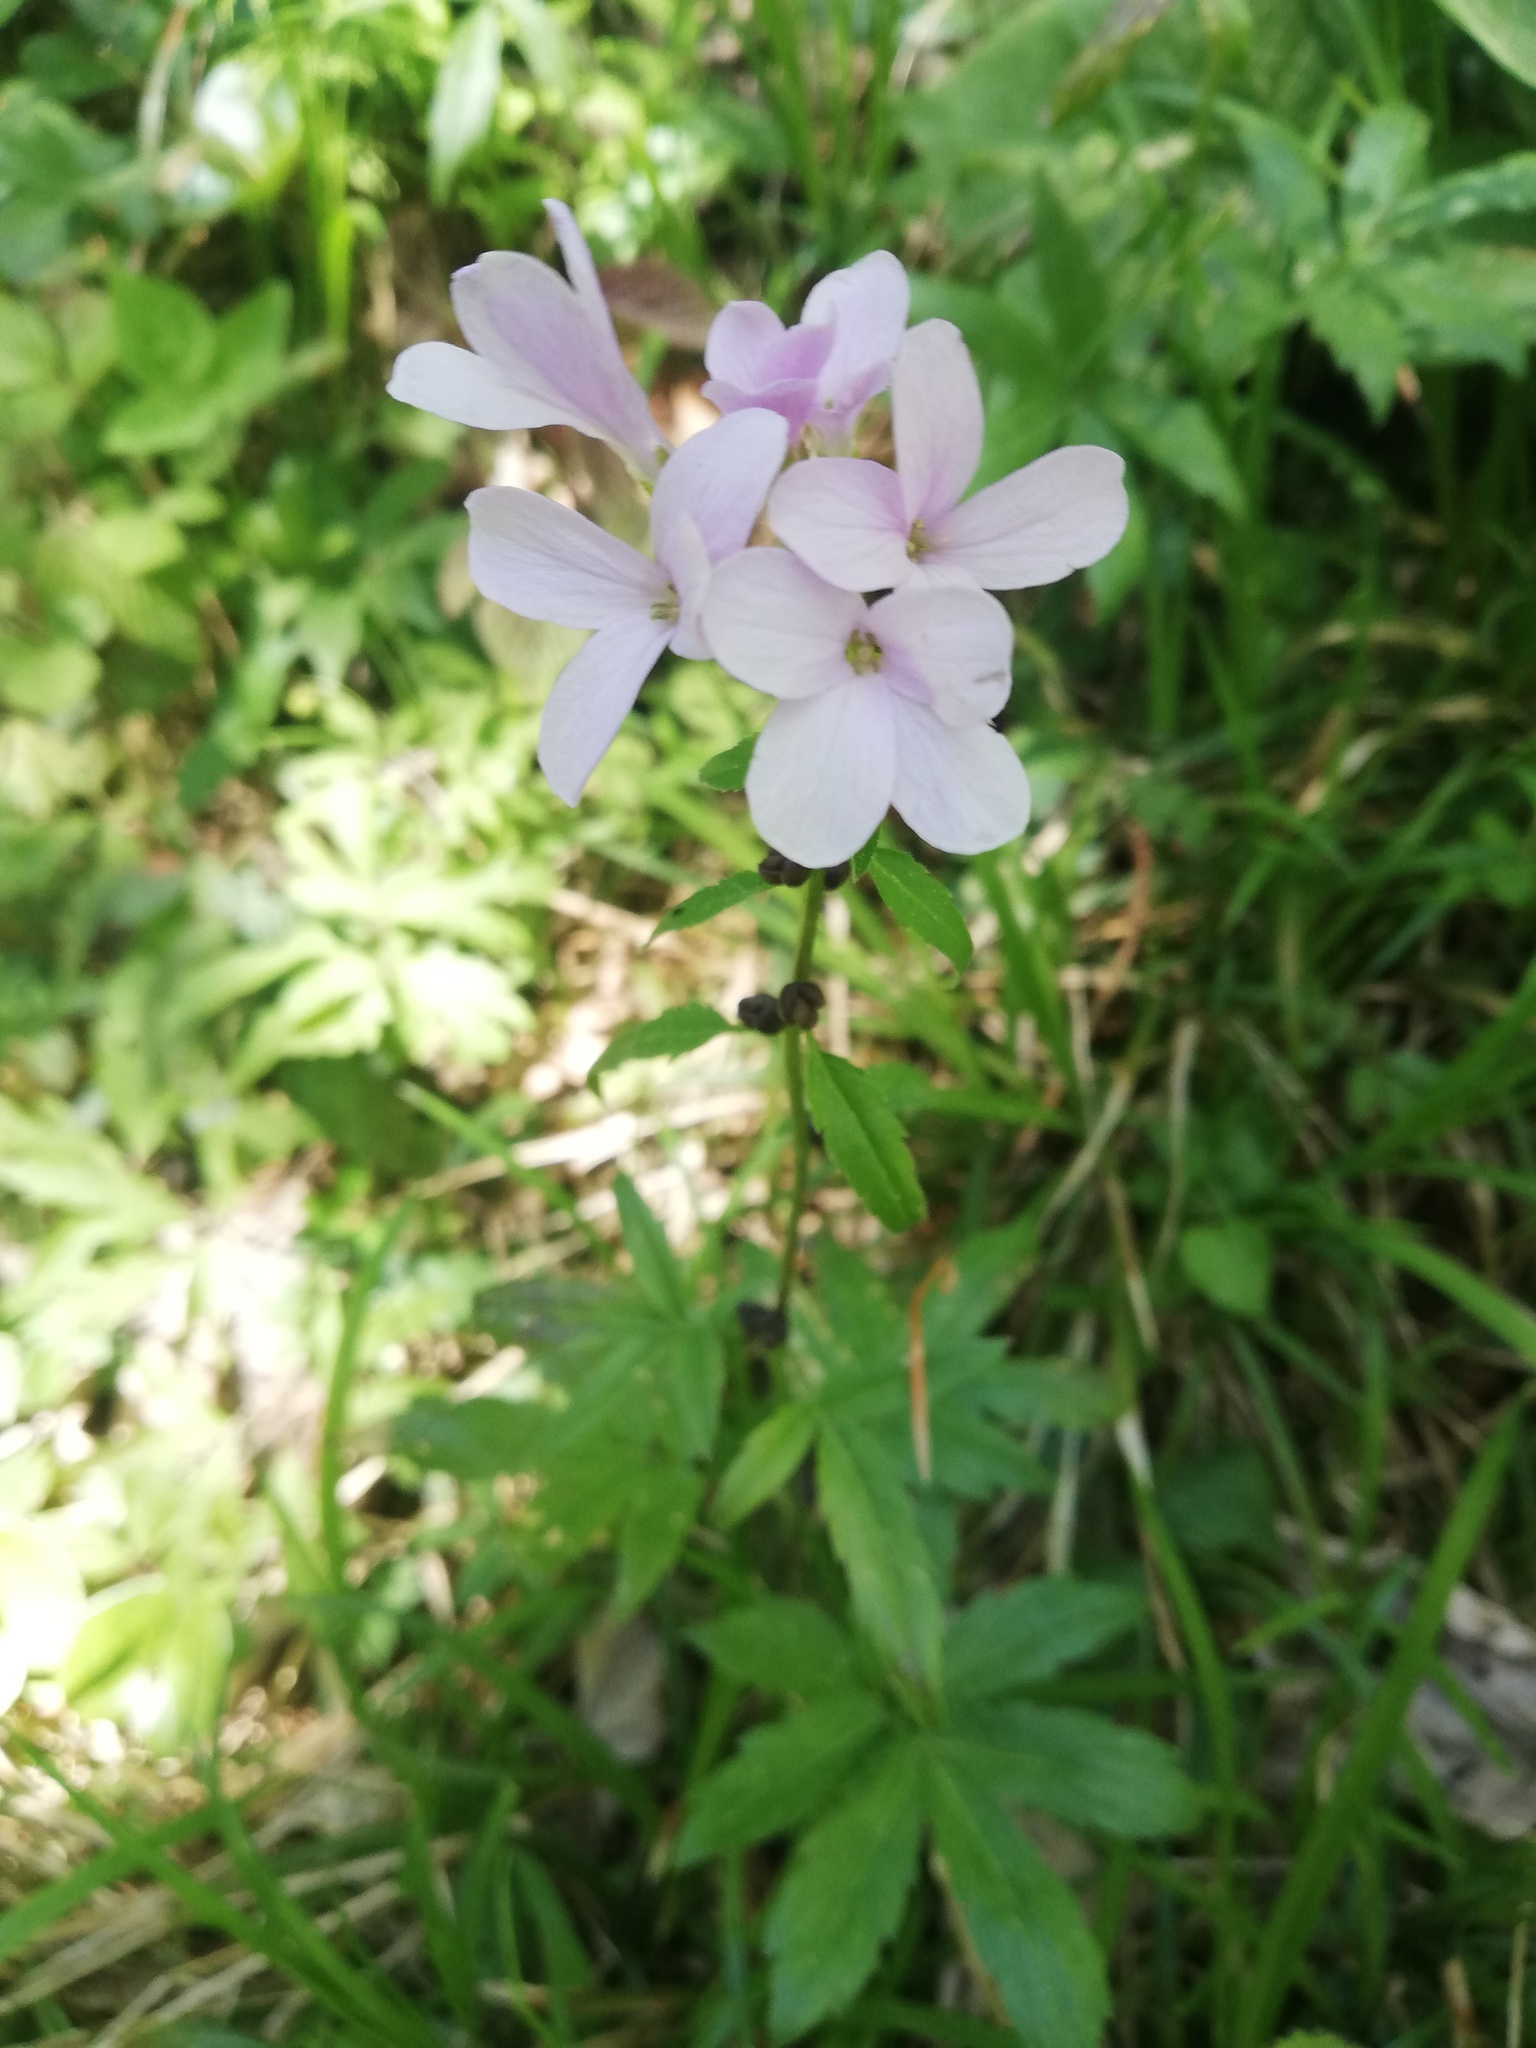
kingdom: Plantae
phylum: Tracheophyta
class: Magnoliopsida
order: Brassicales
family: Brassicaceae
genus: Cardamine
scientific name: Cardamine bulbifera
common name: Coralroot bittercress
